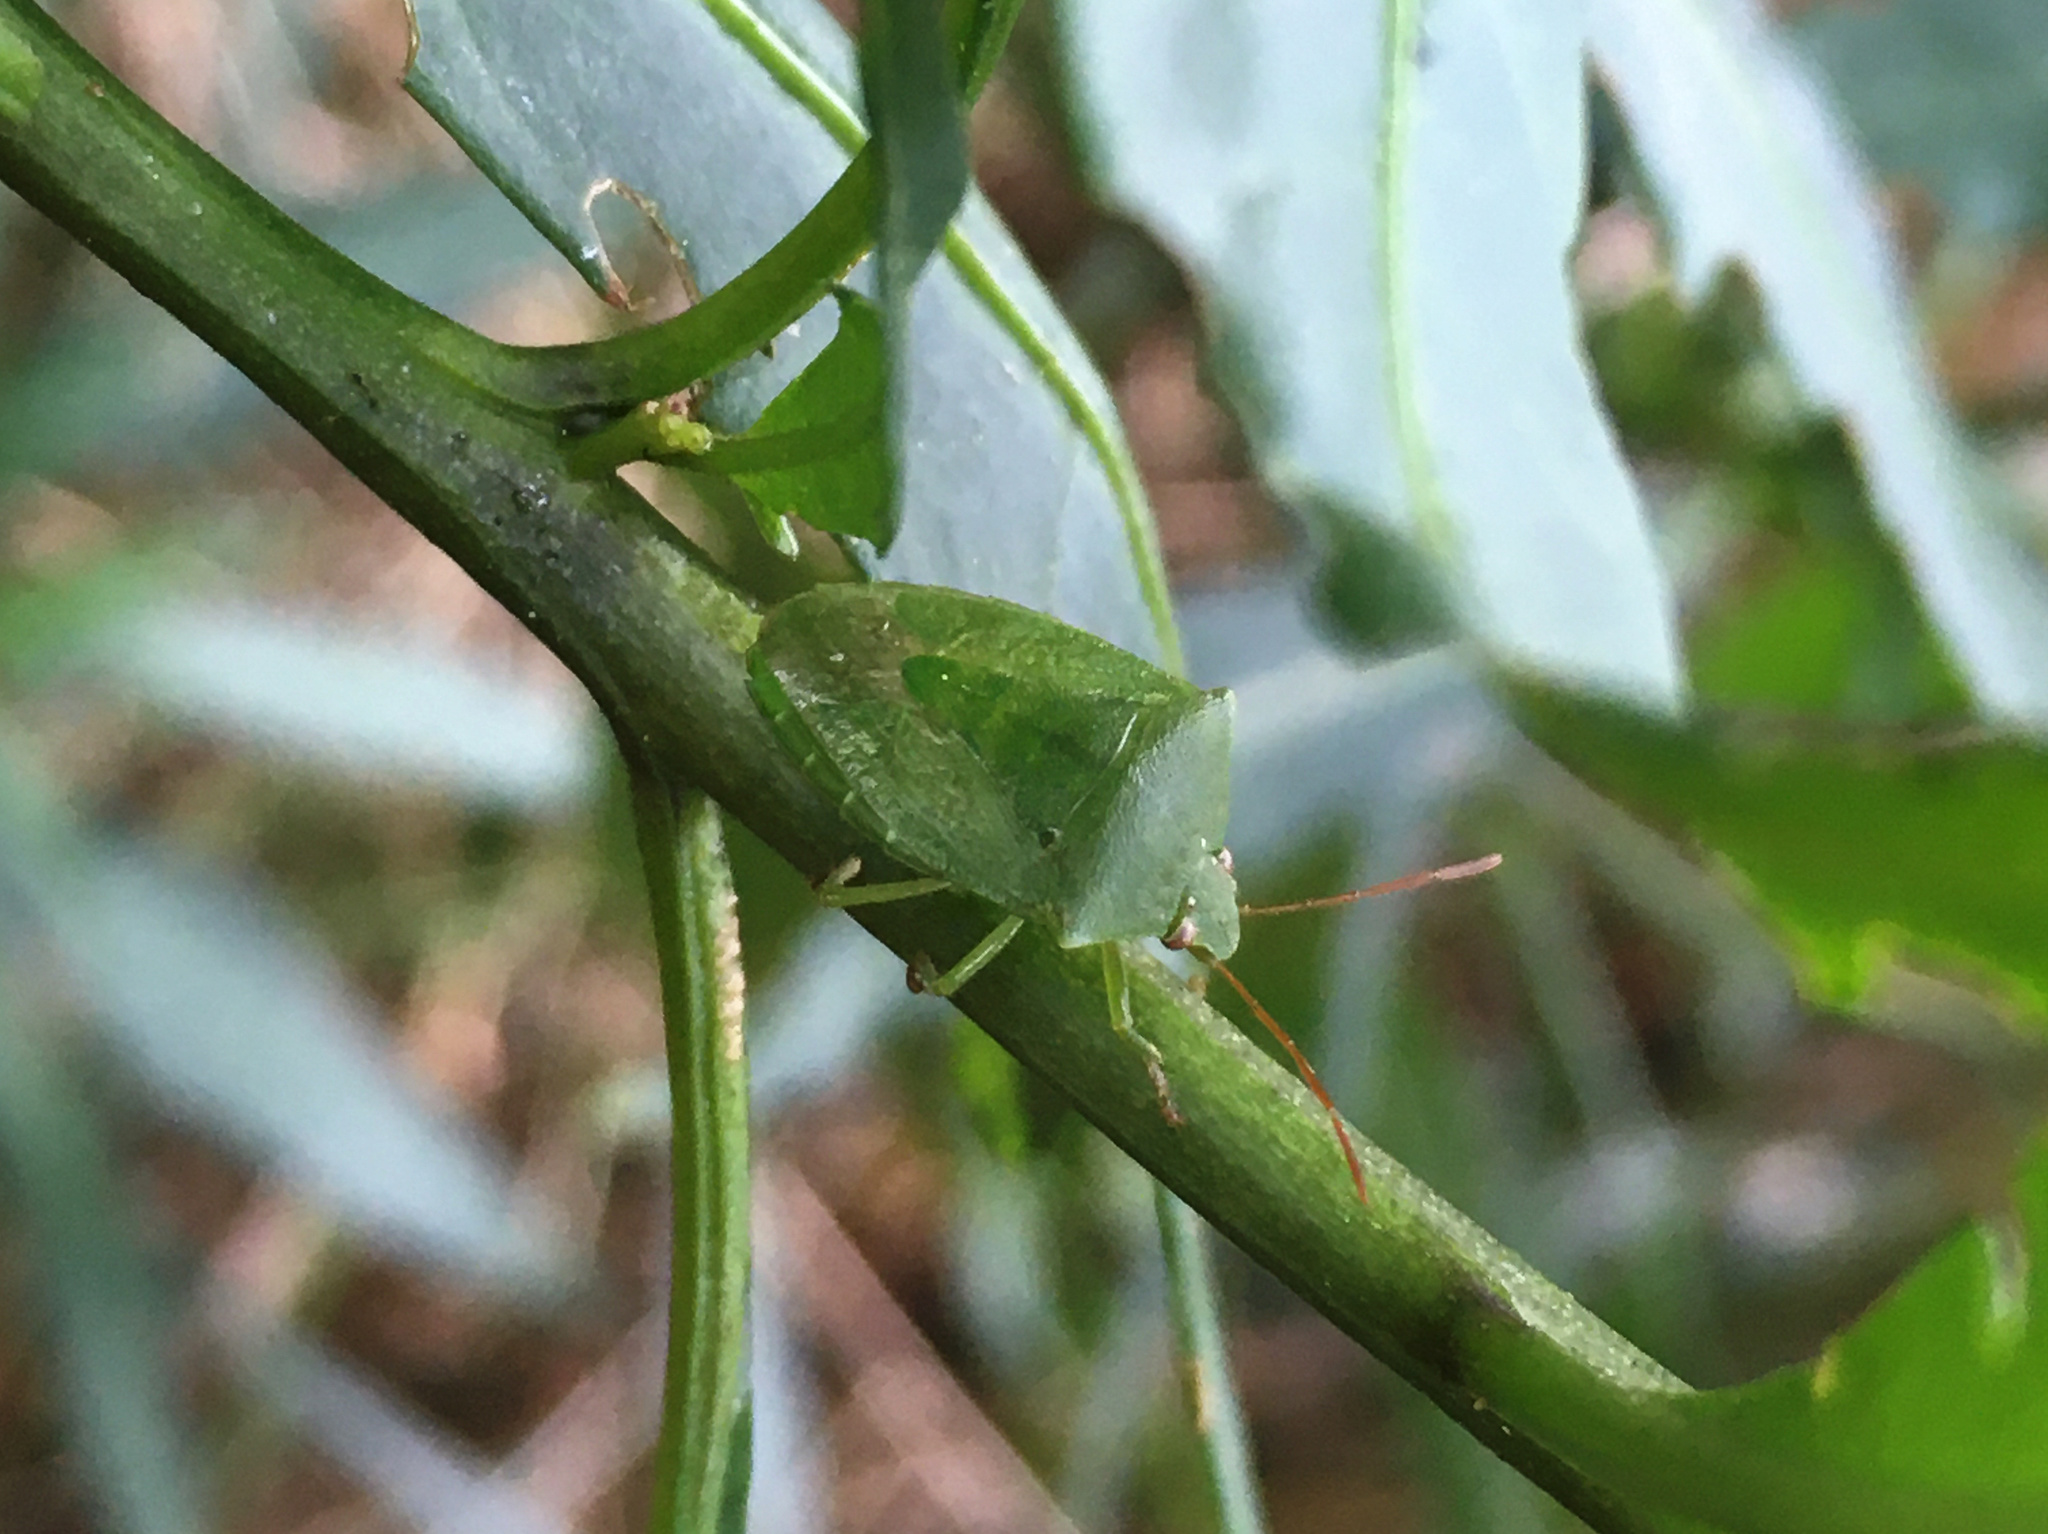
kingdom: Animalia
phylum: Arthropoda
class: Insecta
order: Hemiptera
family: Pentatomidae
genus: Cuspicona
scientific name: Cuspicona simplex
